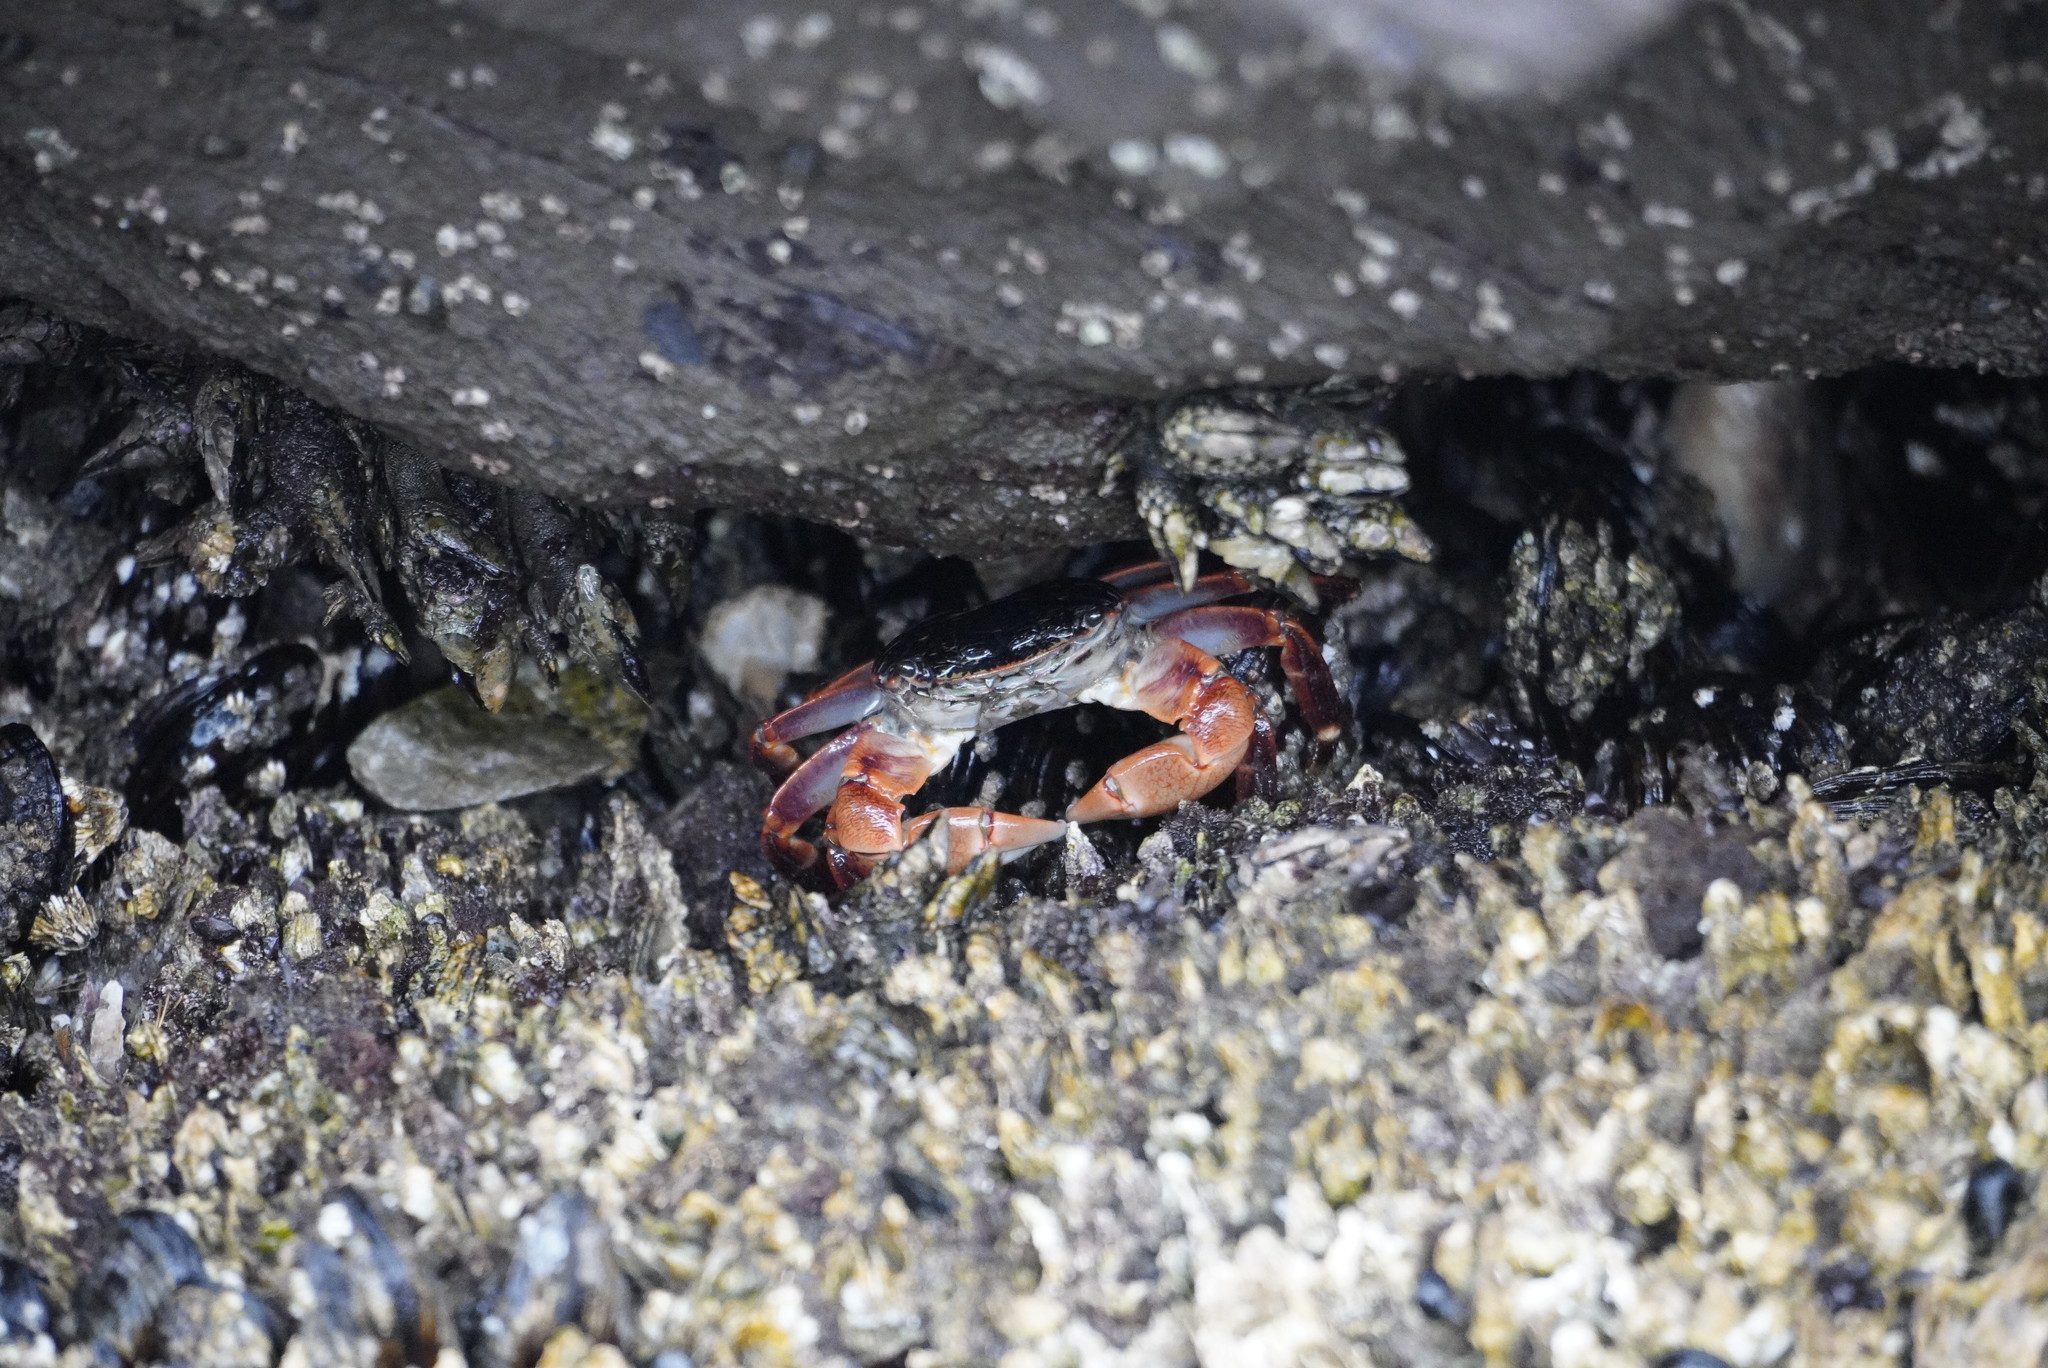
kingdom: Animalia
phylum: Arthropoda
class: Malacostraca
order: Decapoda
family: Grapsidae
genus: Pachygrapsus
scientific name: Pachygrapsus crassipes
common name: Striped shore crab
